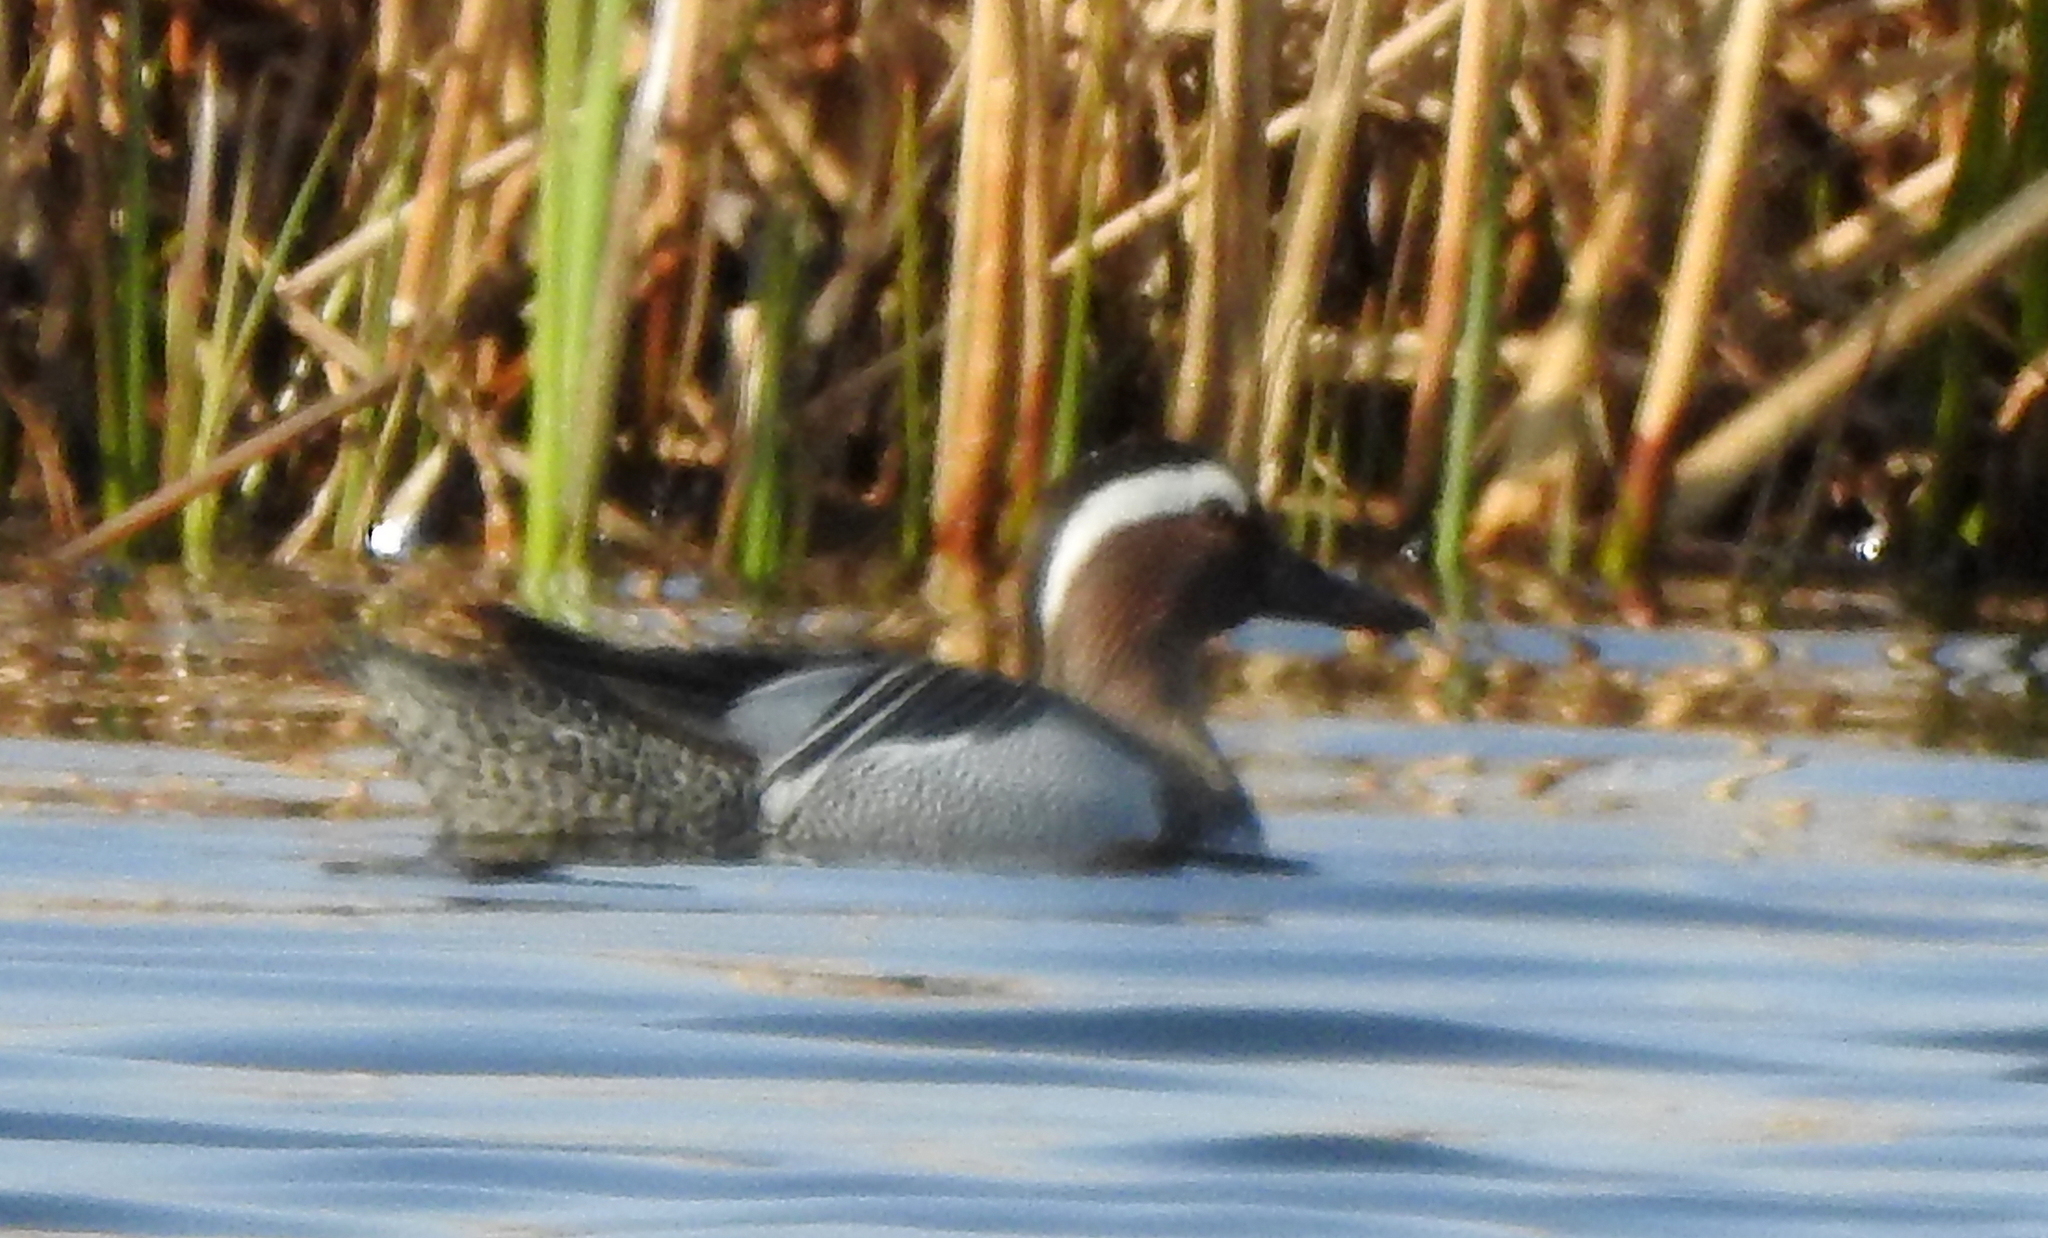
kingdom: Animalia
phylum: Chordata
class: Aves
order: Anseriformes
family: Anatidae
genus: Spatula
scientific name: Spatula querquedula
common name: Garganey
